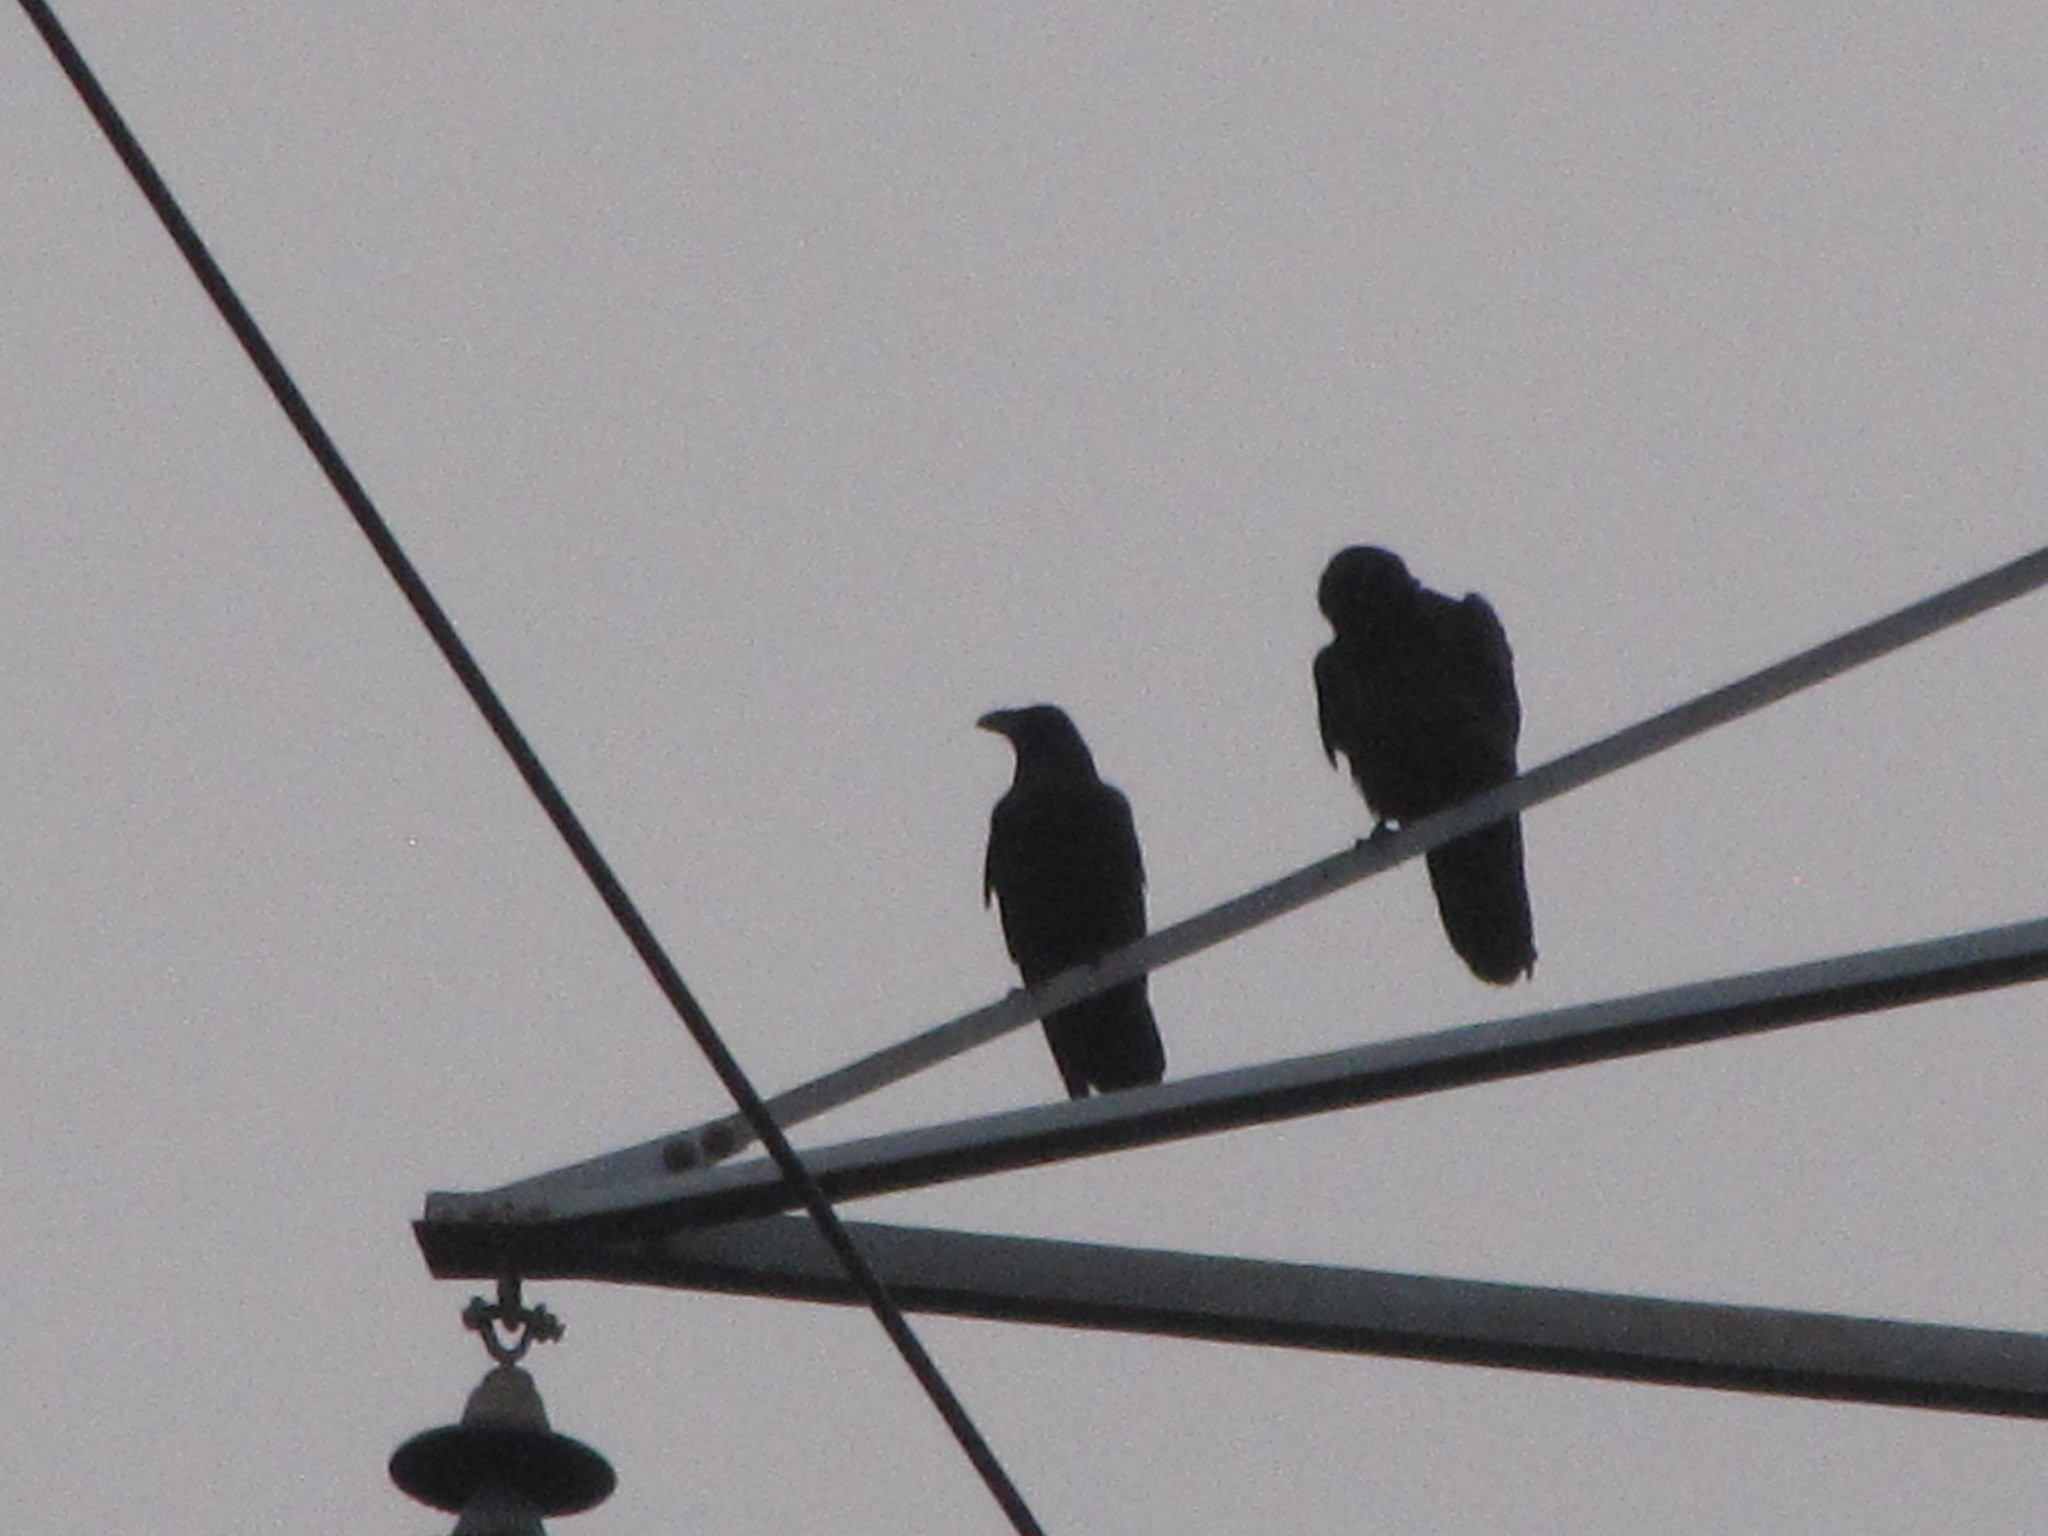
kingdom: Animalia
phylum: Chordata
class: Aves
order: Passeriformes
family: Corvidae
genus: Corvus
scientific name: Corvus corax
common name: Common raven
